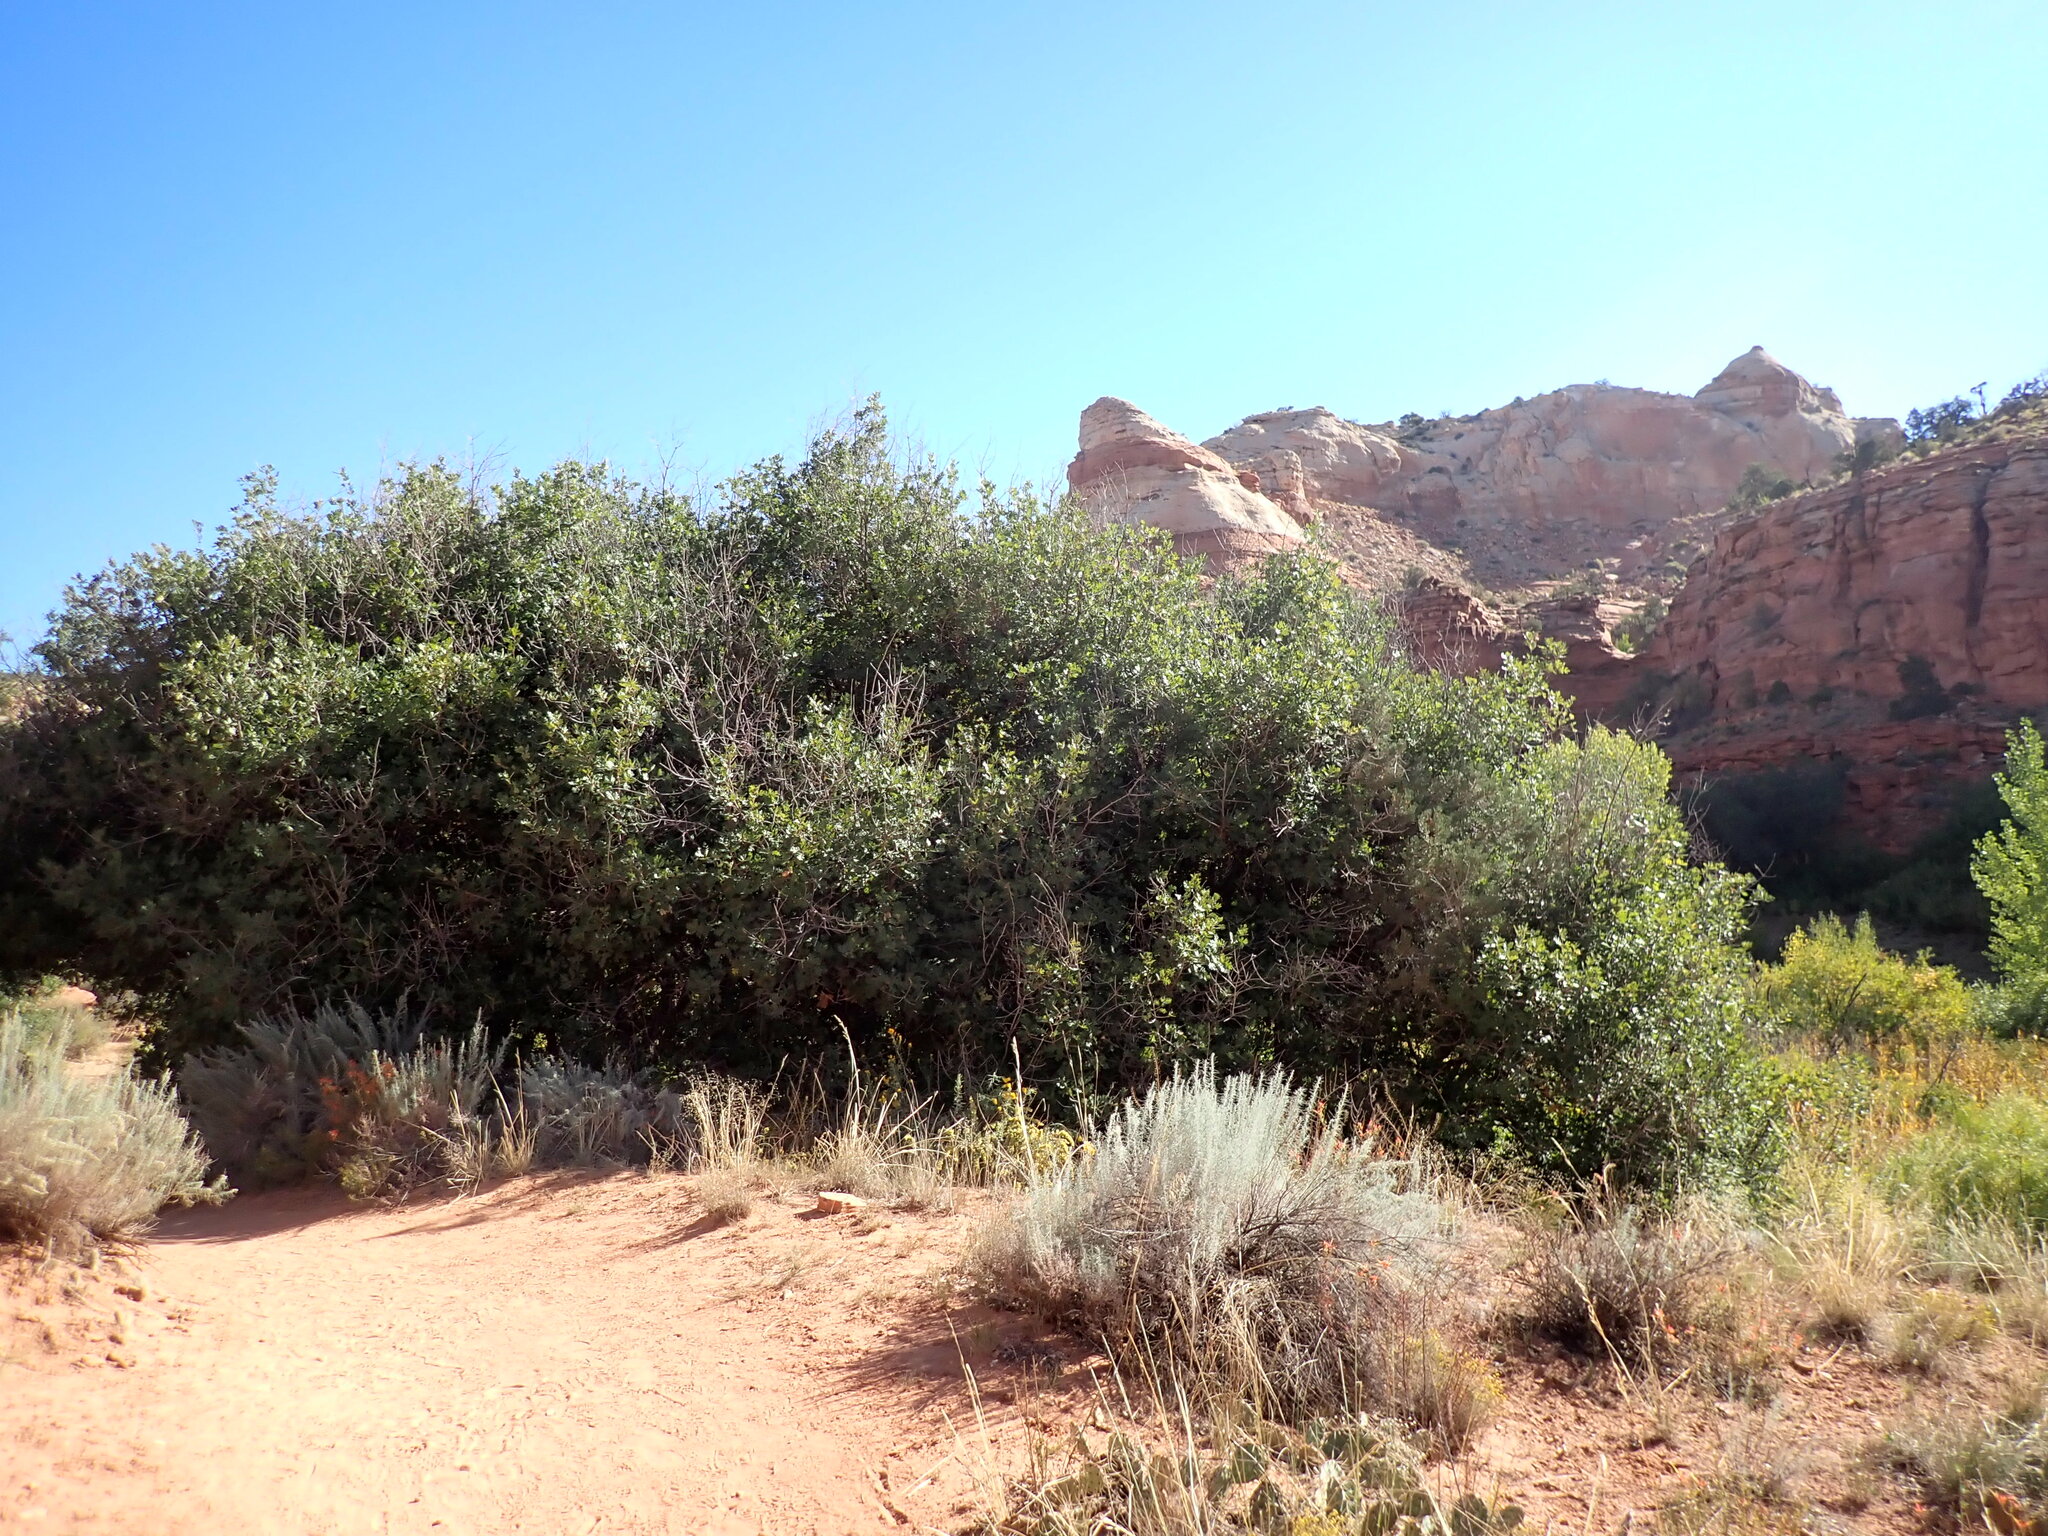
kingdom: Plantae
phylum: Tracheophyta
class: Magnoliopsida
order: Fagales
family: Fagaceae
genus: Quercus
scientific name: Quercus gambelii
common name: Gambel oak
